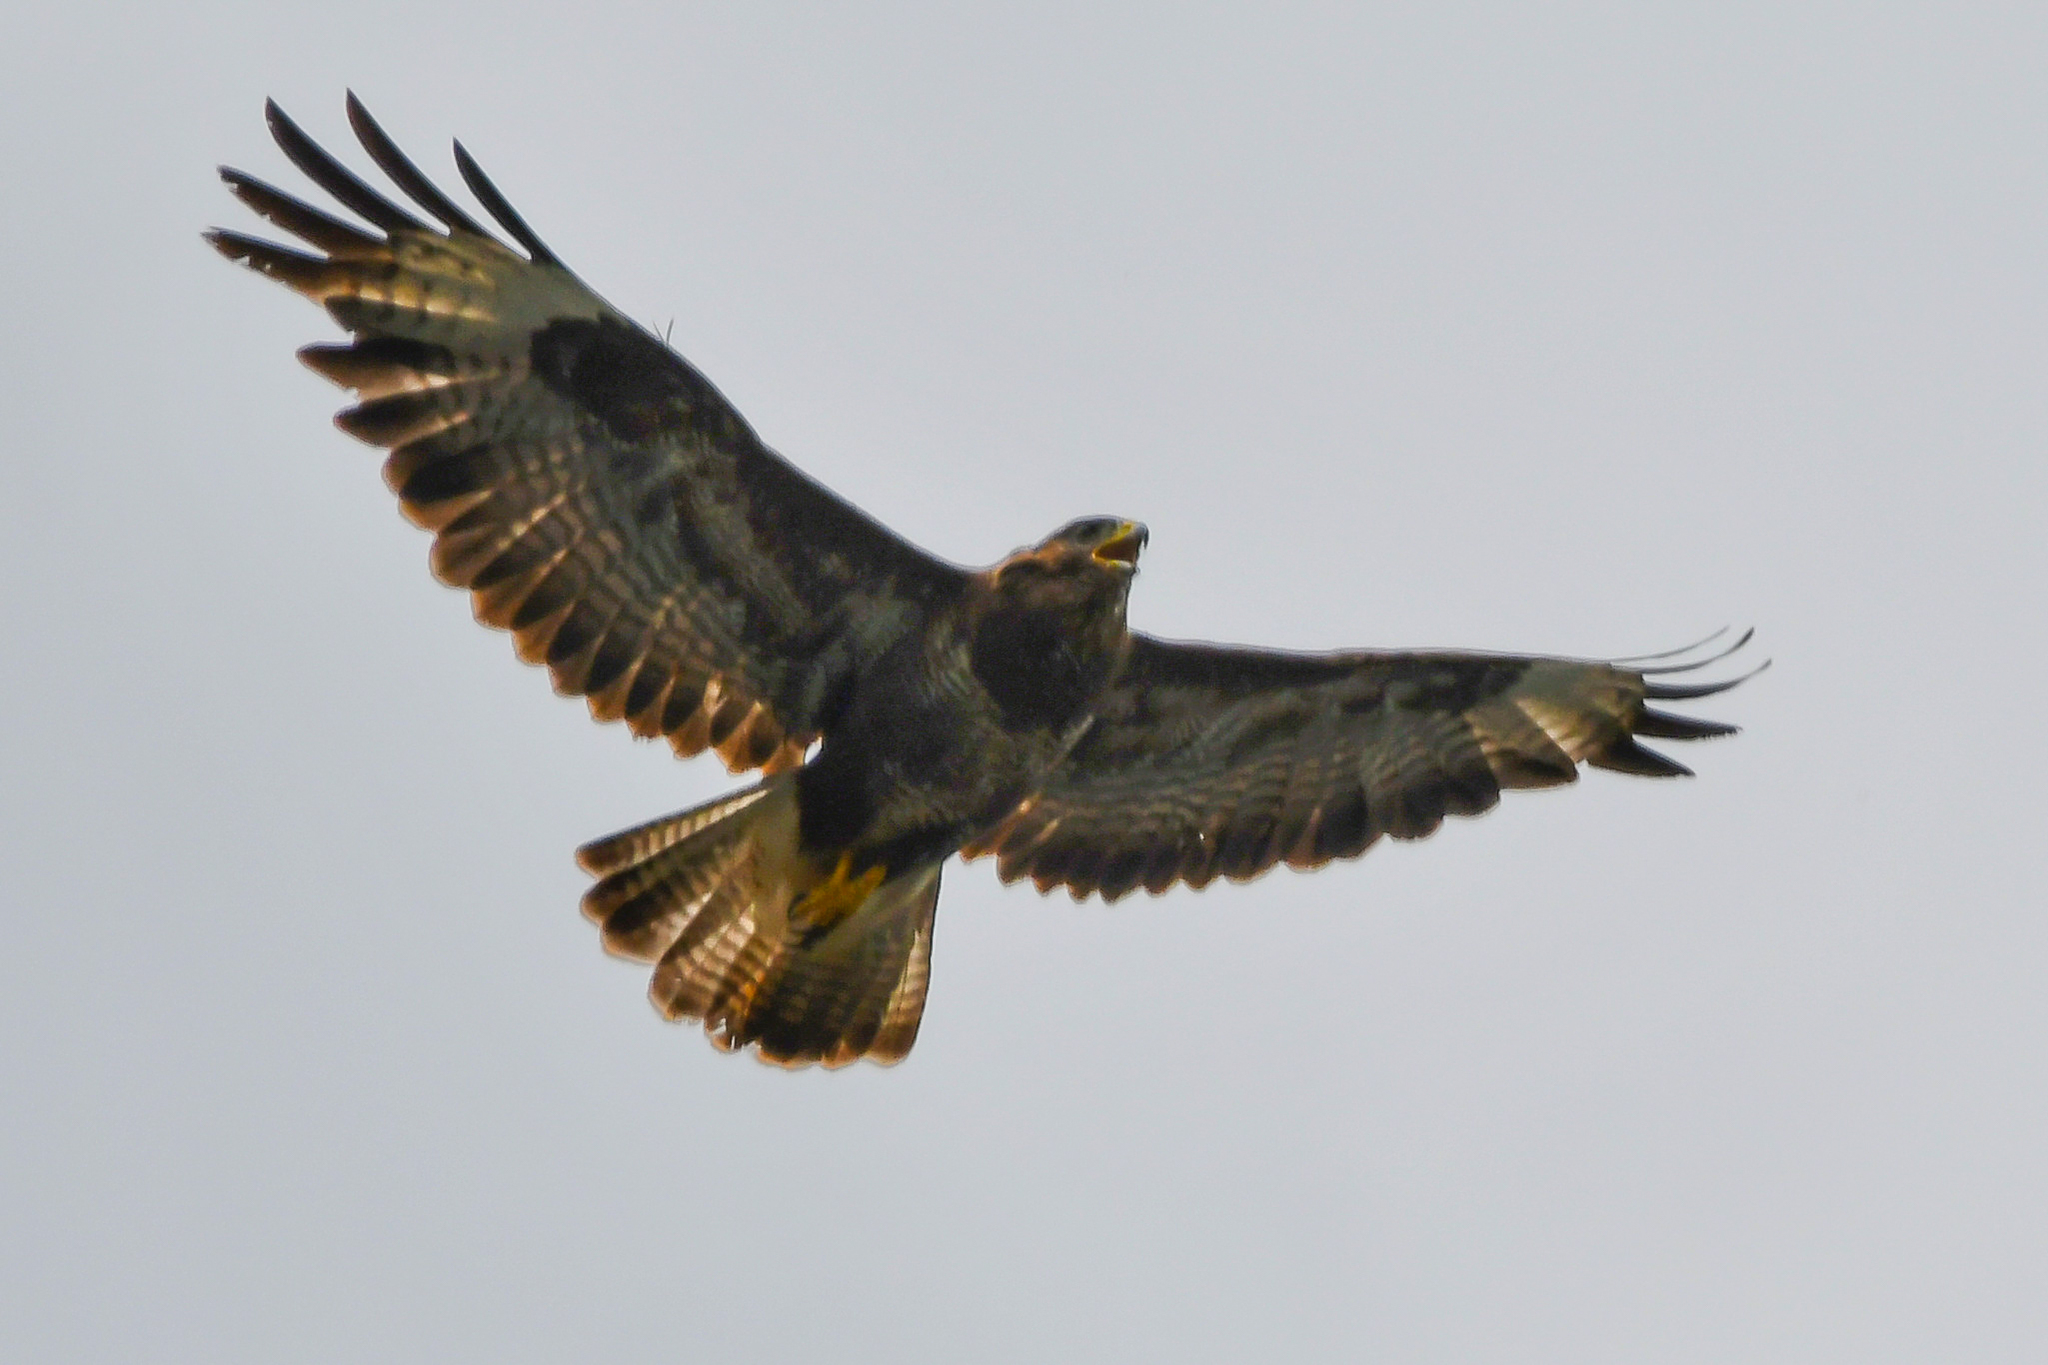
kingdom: Animalia
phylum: Chordata
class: Aves
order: Accipitriformes
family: Accipitridae
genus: Buteo
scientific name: Buteo buteo
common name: Common buzzard
